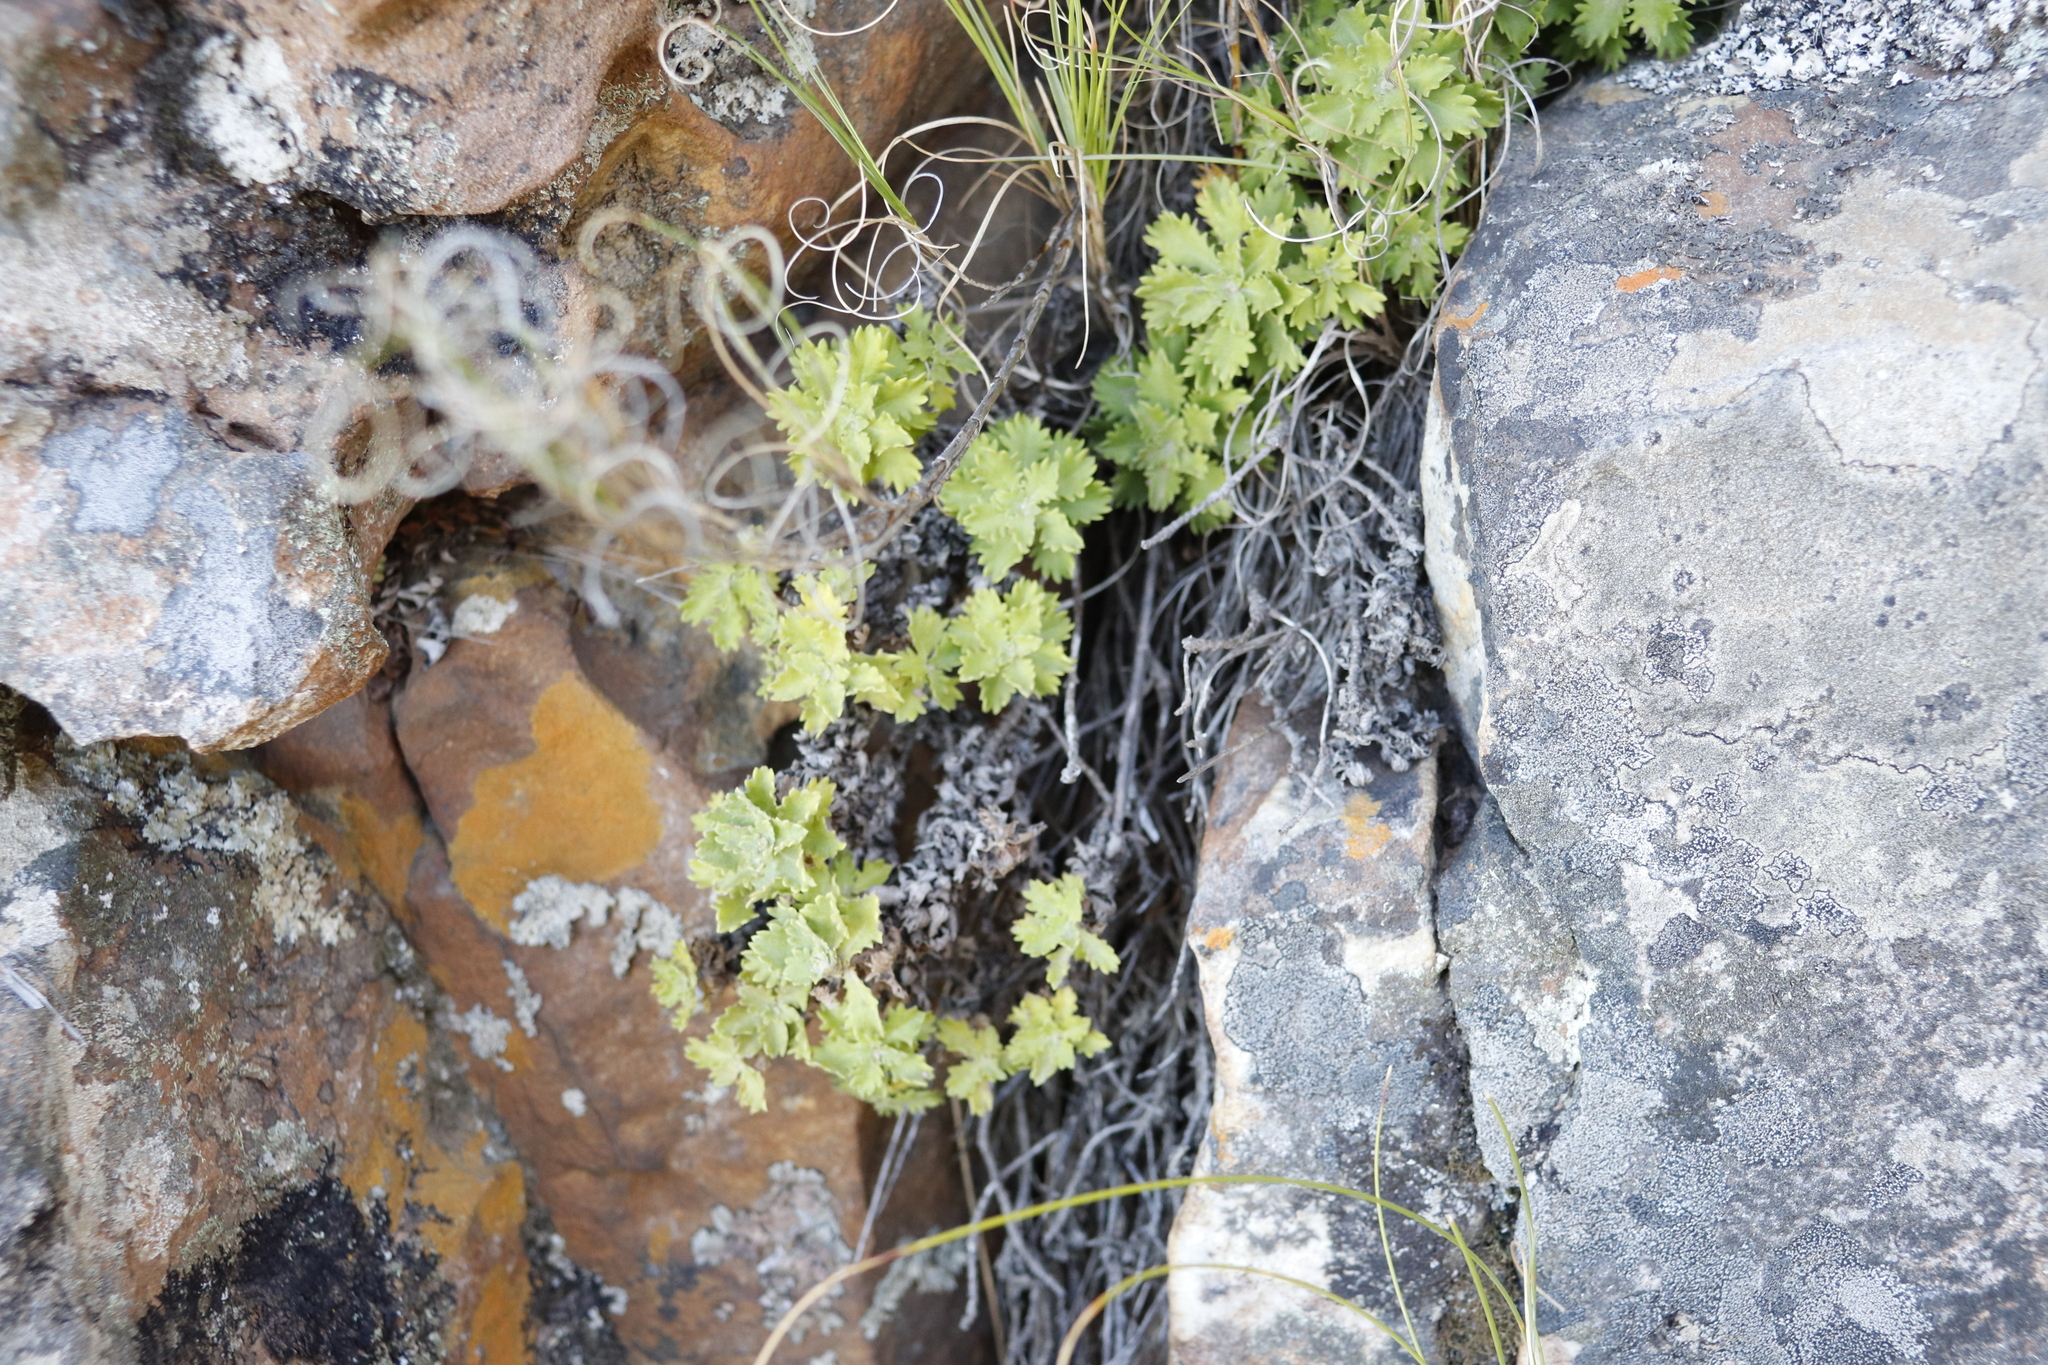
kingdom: Plantae
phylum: Tracheophyta
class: Magnoliopsida
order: Asterales
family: Asteraceae
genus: Osmitopsis
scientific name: Osmitopsis dentata
